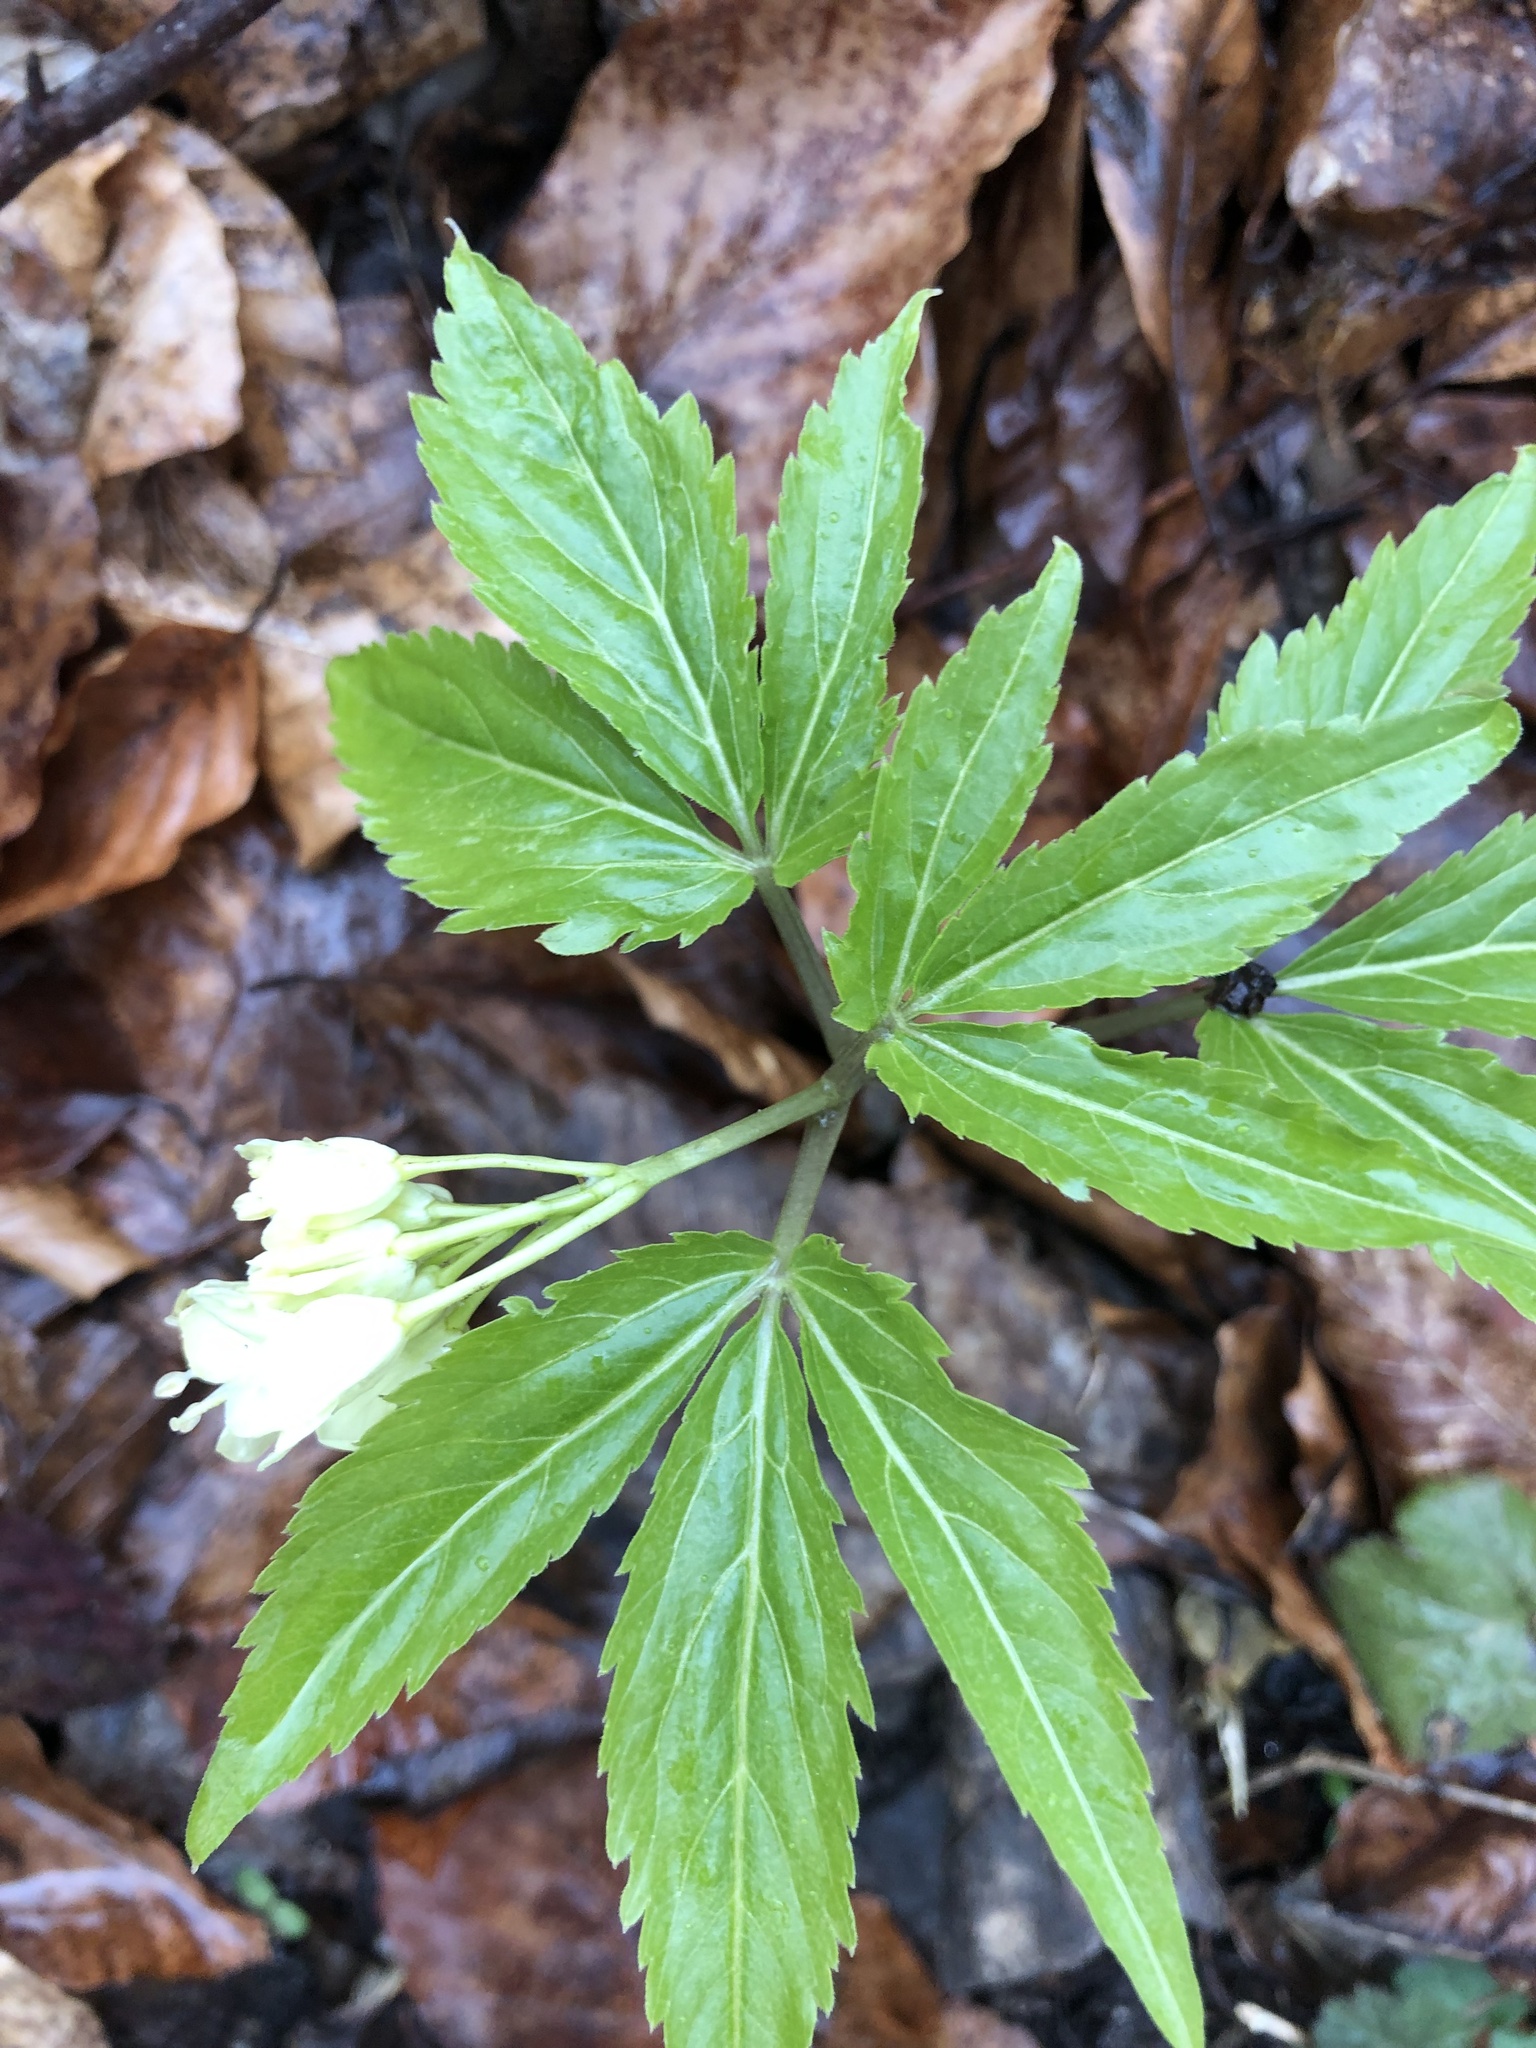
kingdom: Plantae
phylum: Tracheophyta
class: Magnoliopsida
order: Brassicales
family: Brassicaceae
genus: Cardamine
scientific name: Cardamine enneaphyllos
